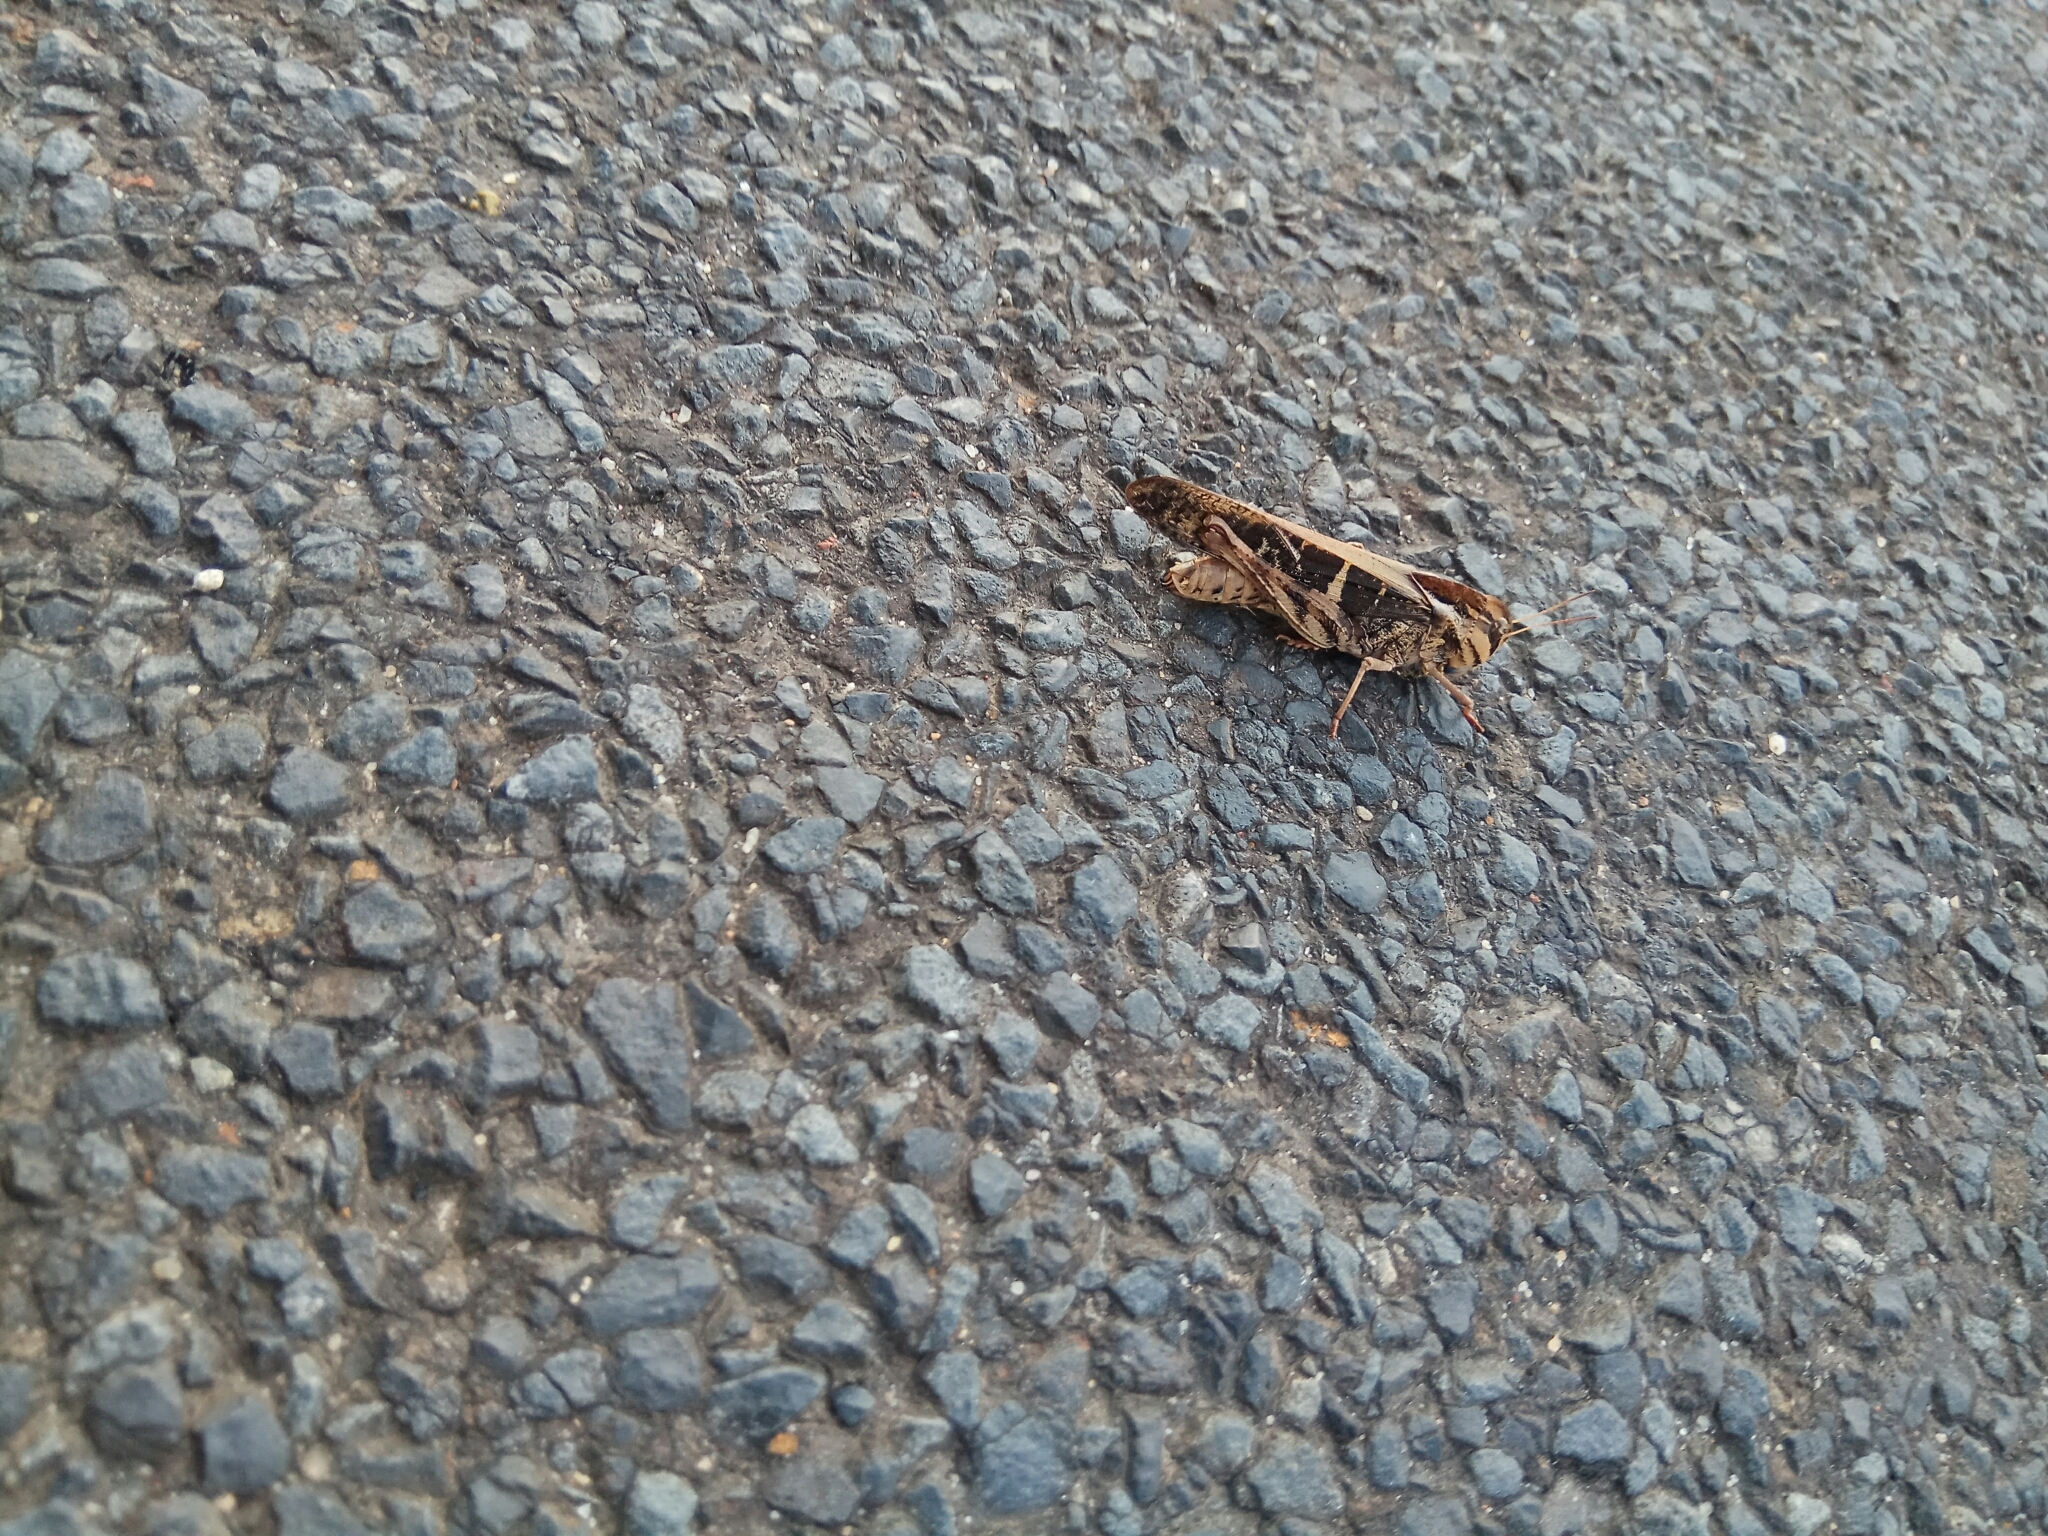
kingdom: Animalia
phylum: Arthropoda
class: Insecta
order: Orthoptera
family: Acrididae
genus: Gastrimargus
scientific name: Gastrimargus musicus
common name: Yellow-winged locust
